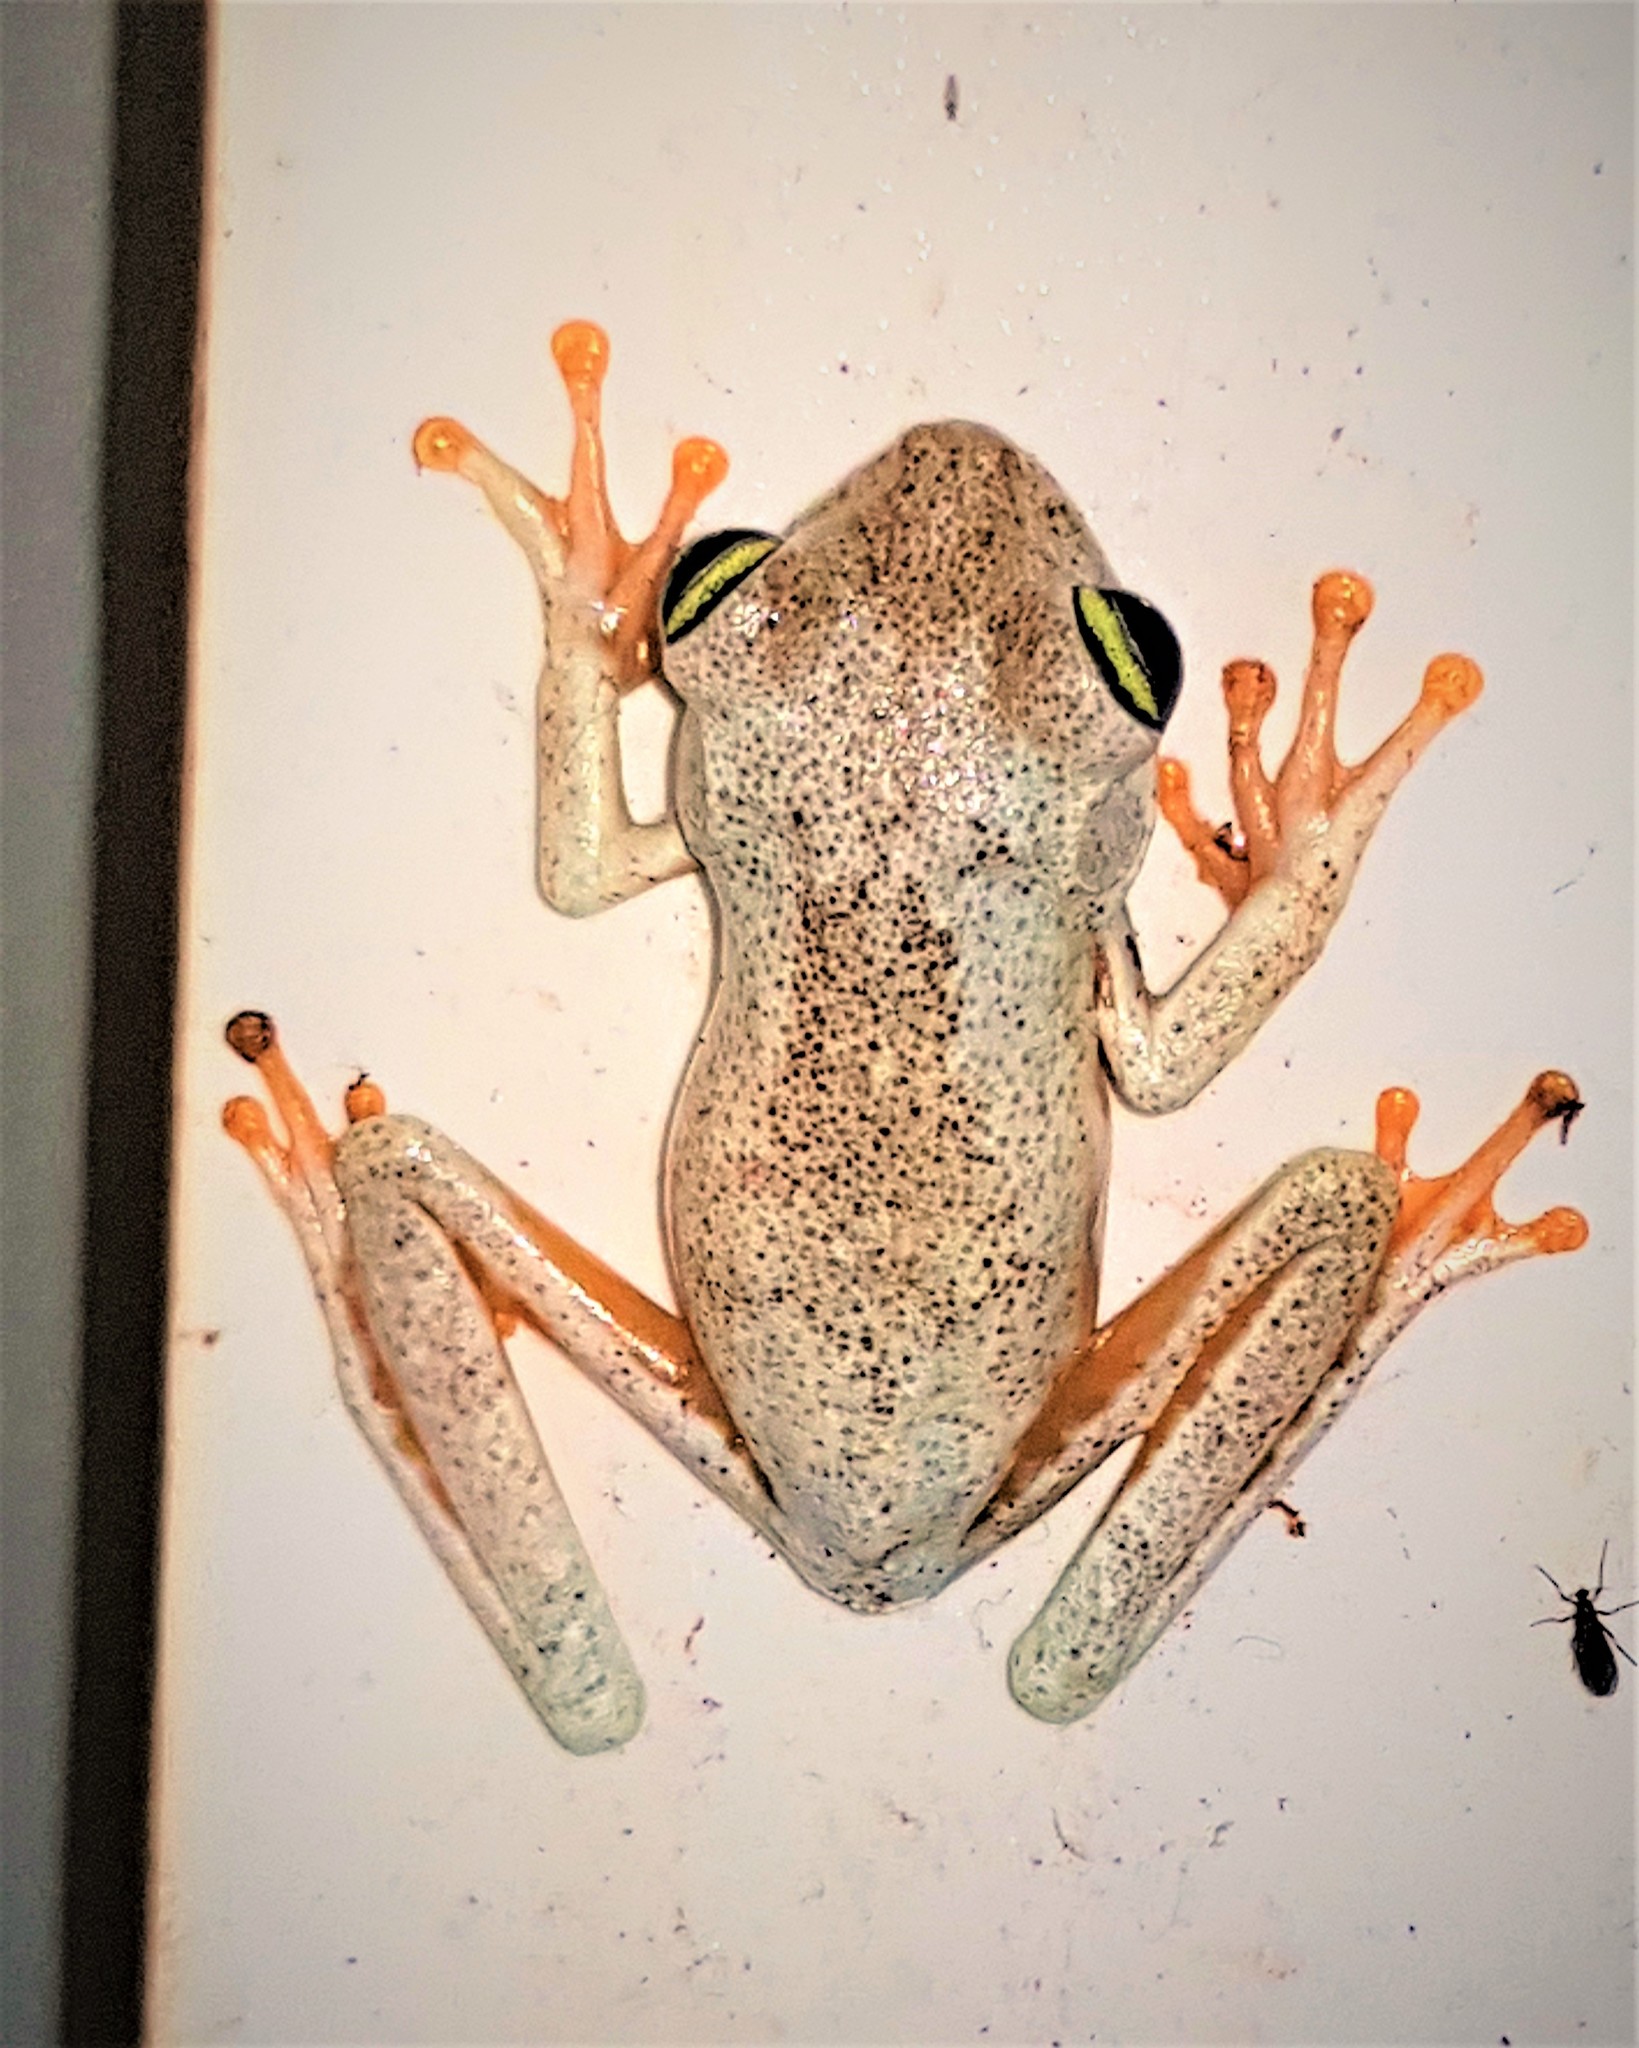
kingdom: Animalia
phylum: Chordata
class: Amphibia
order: Anura
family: Hylidae
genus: Boana
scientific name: Boana xerophylla
